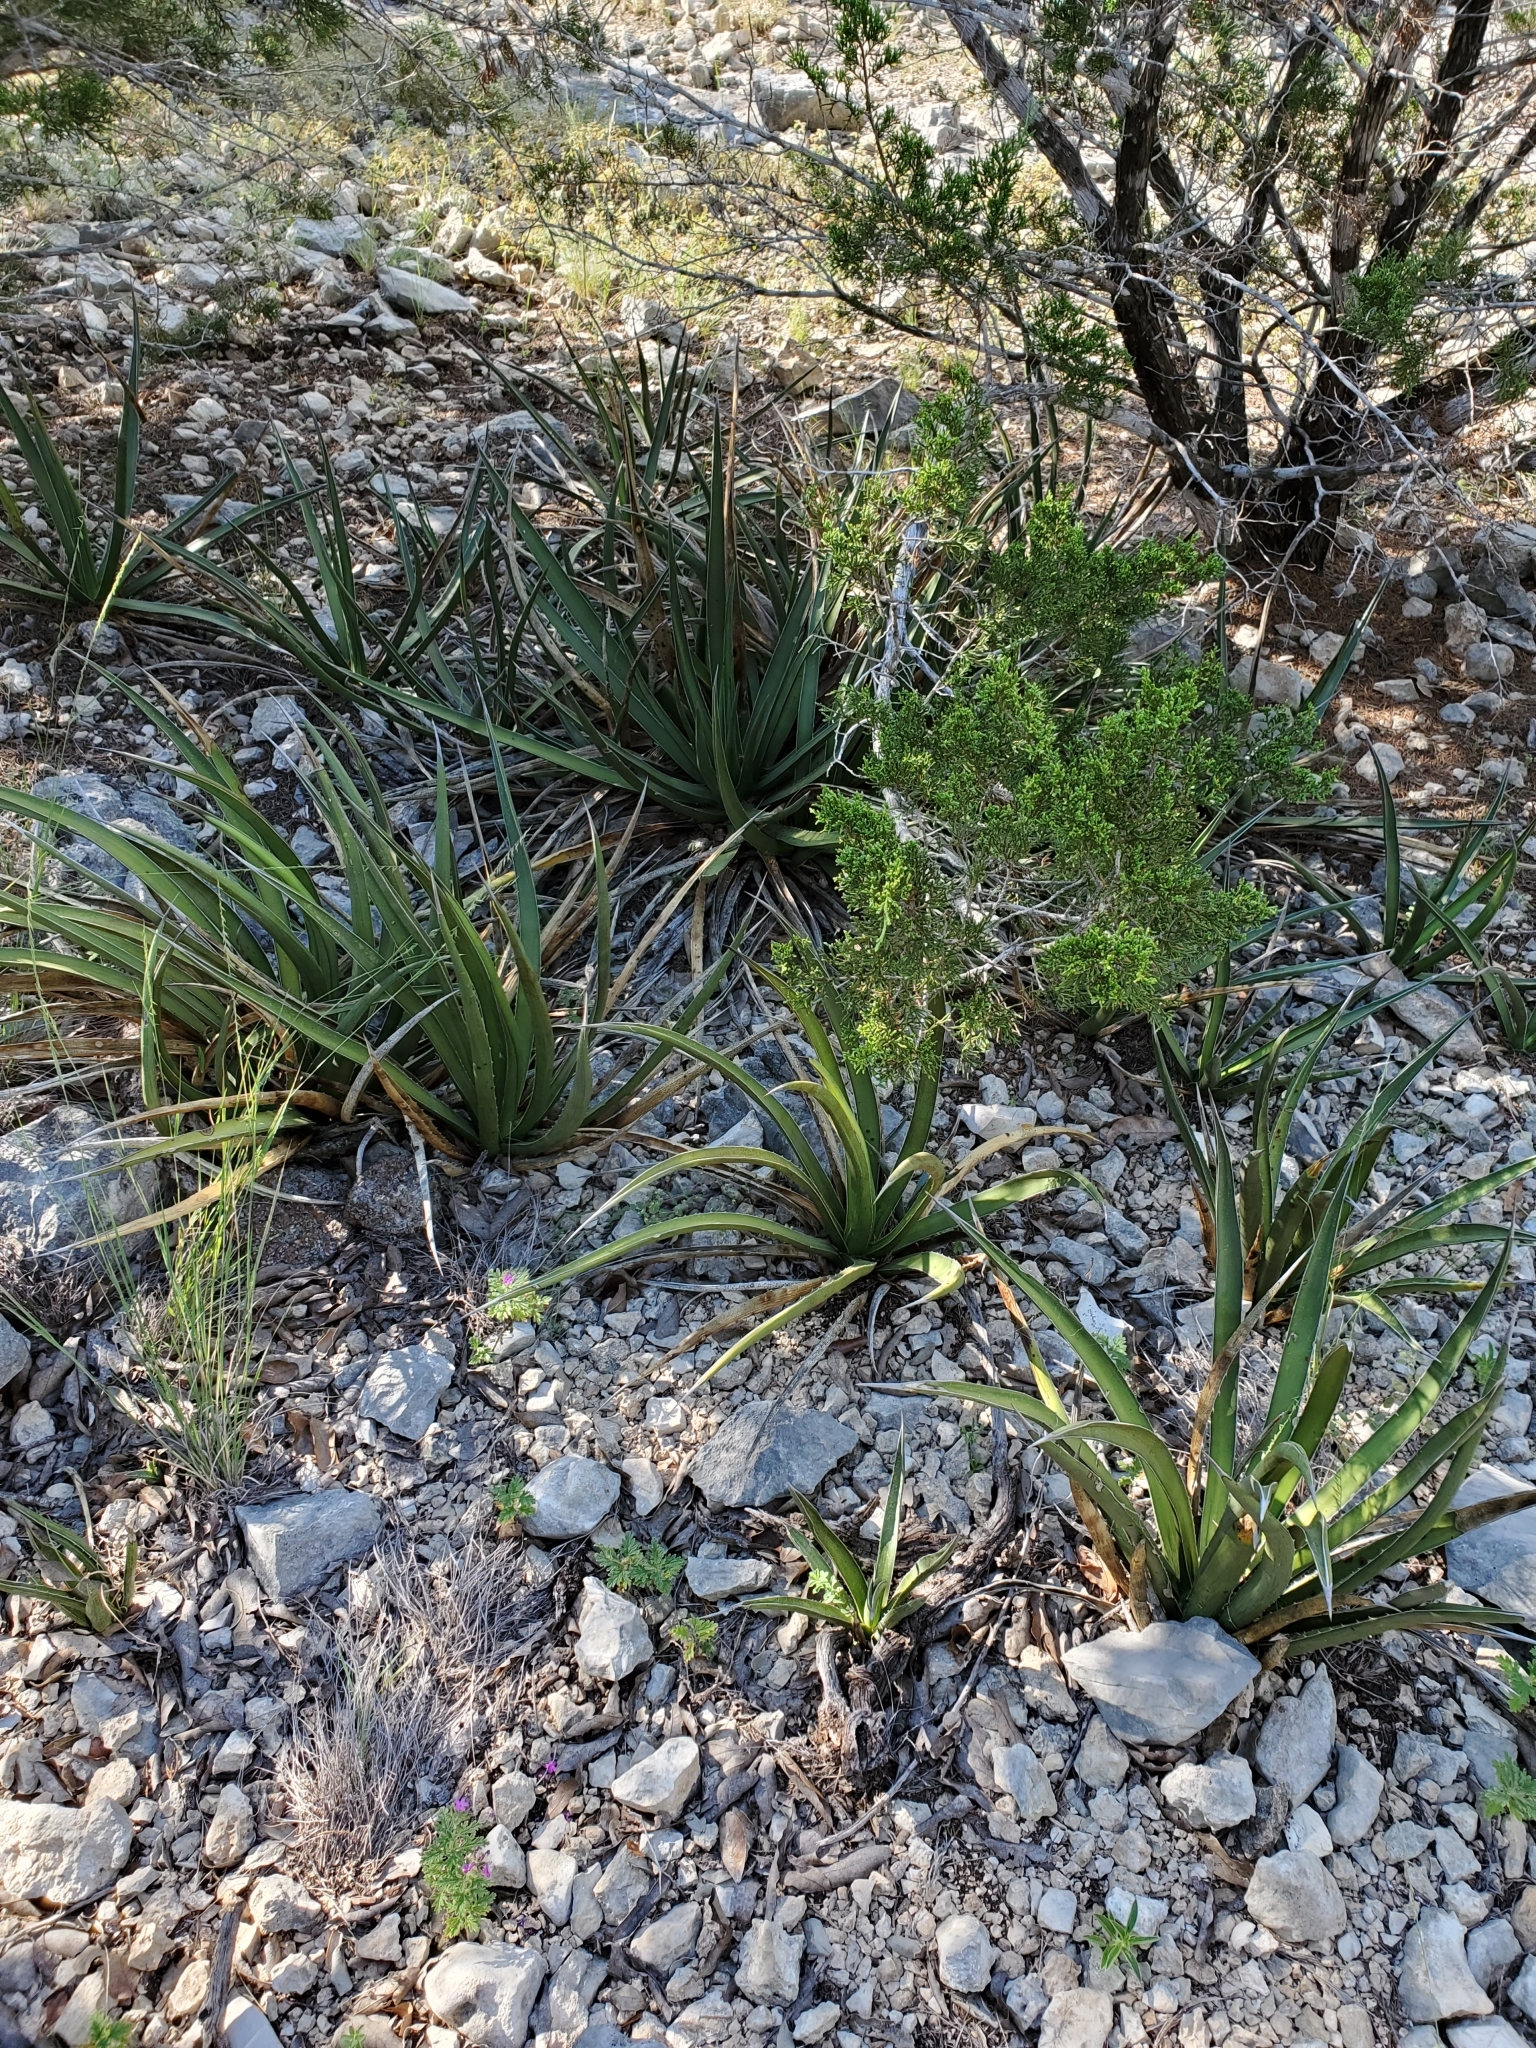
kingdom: Plantae
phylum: Tracheophyta
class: Liliopsida
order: Asparagales
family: Asparagaceae
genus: Agave
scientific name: Agave lechuguilla
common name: Lecheguilla agave
